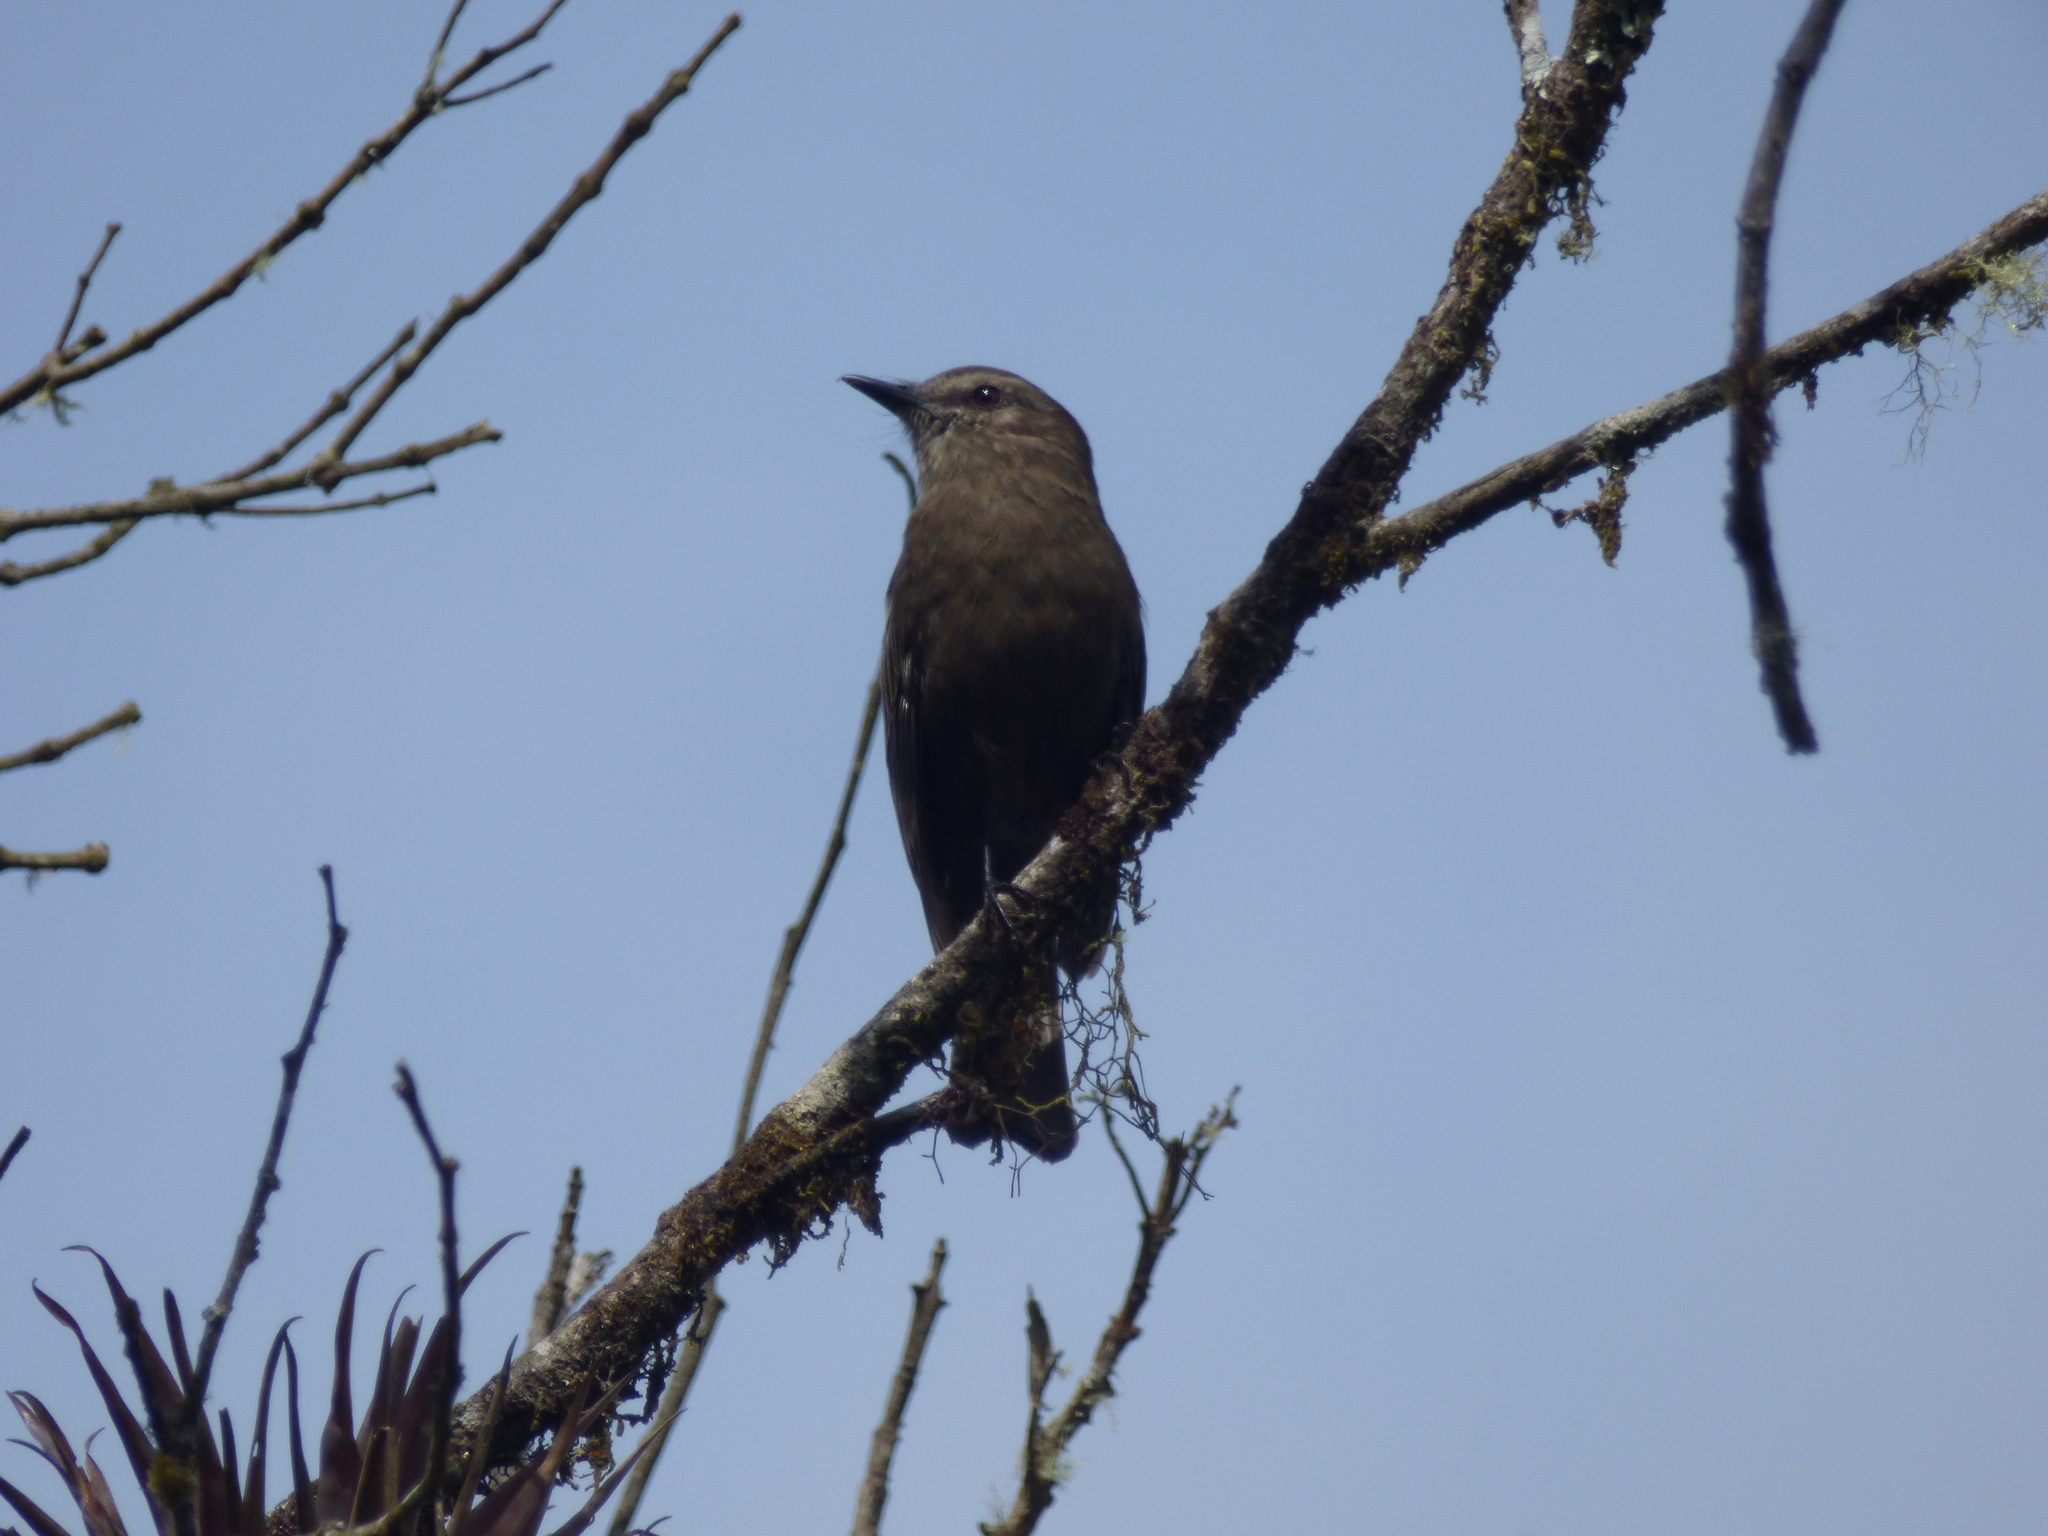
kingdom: Animalia
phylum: Chordata
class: Aves
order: Passeriformes
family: Tyrannidae
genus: Myiotheretes
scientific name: Myiotheretes fumigatus
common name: Smoky bush tyrant
